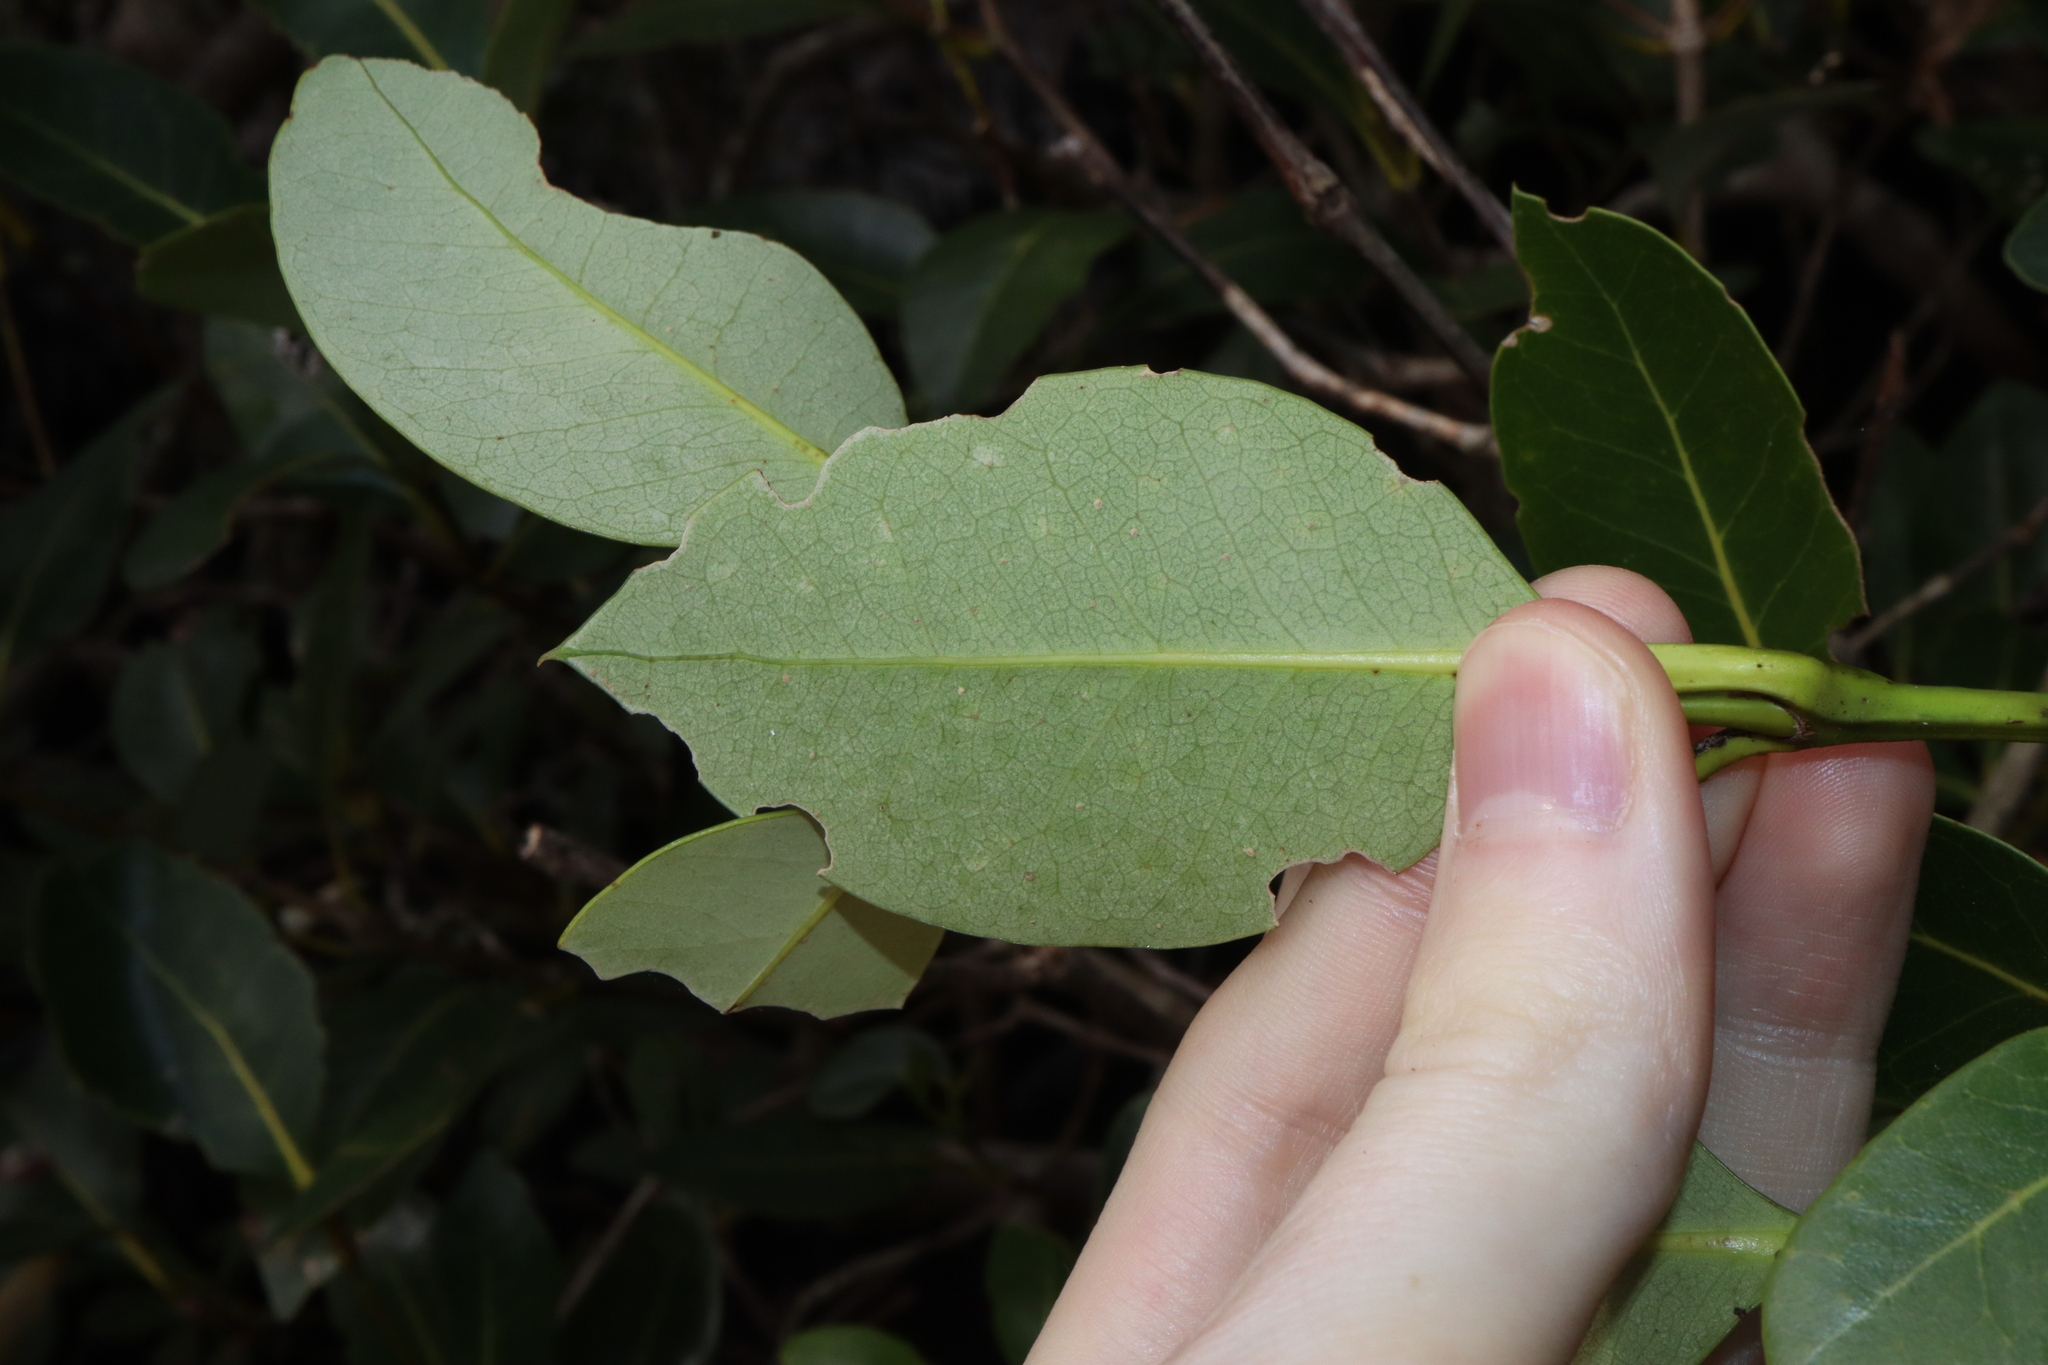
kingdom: Plantae
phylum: Tracheophyta
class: Magnoliopsida
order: Lamiales
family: Acanthaceae
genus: Avicennia
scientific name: Avicennia marina
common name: Gray mangrove
